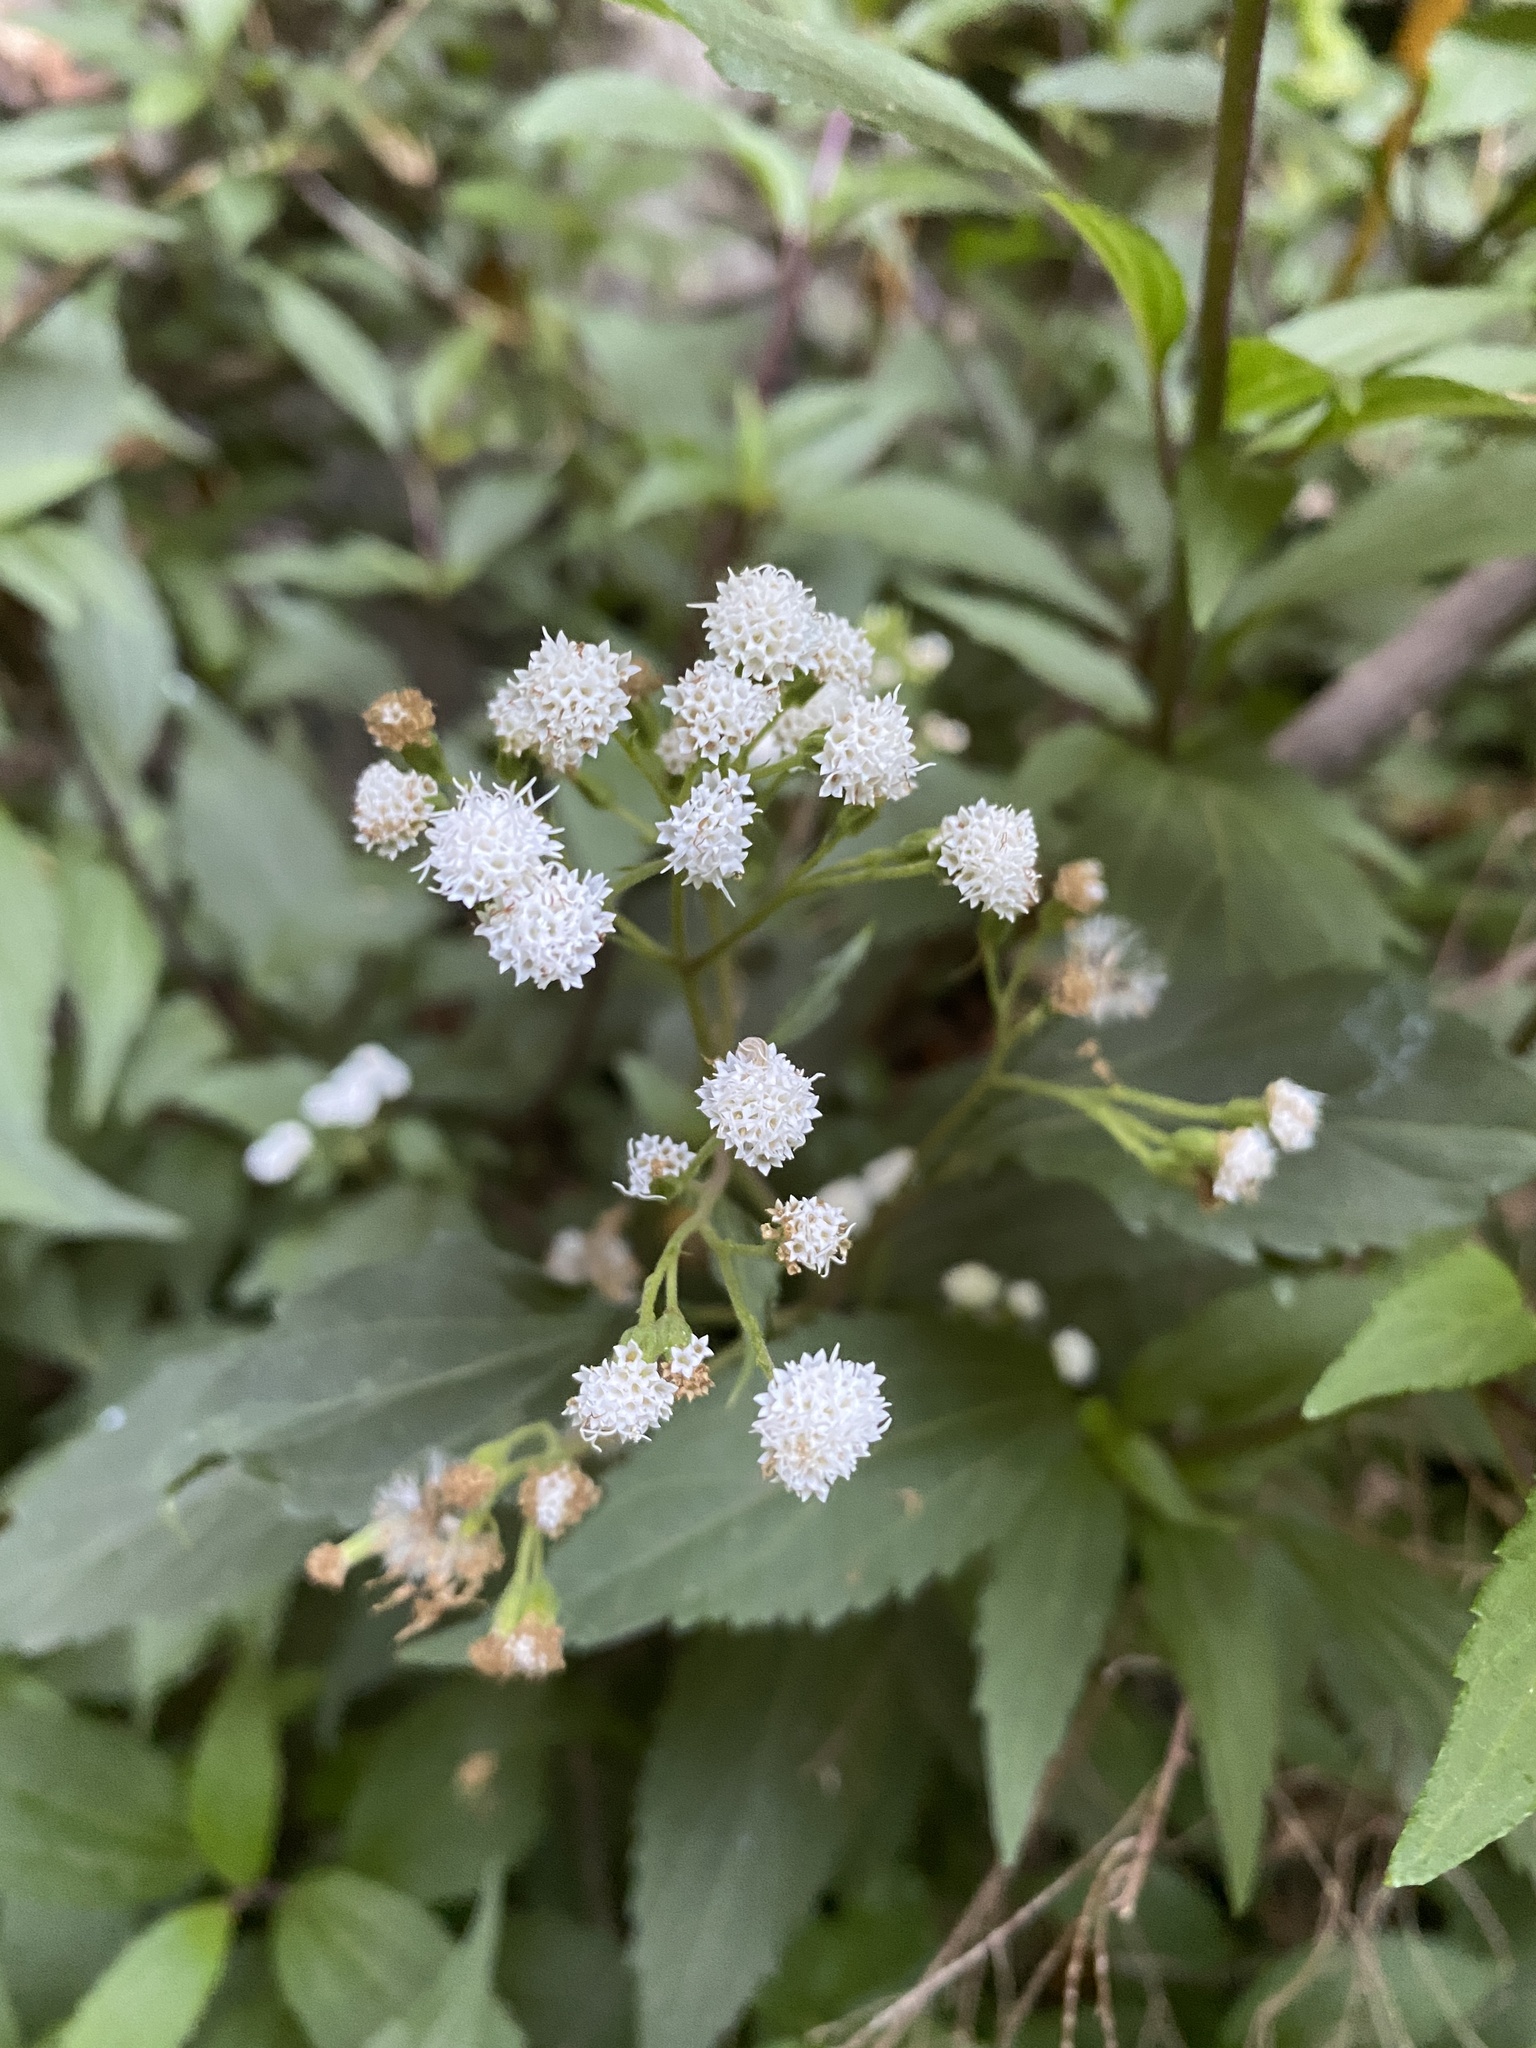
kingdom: Plantae
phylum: Tracheophyta
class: Magnoliopsida
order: Asterales
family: Asteraceae
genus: Ageratina
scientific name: Ageratina riparia
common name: Creeping croftonweed
